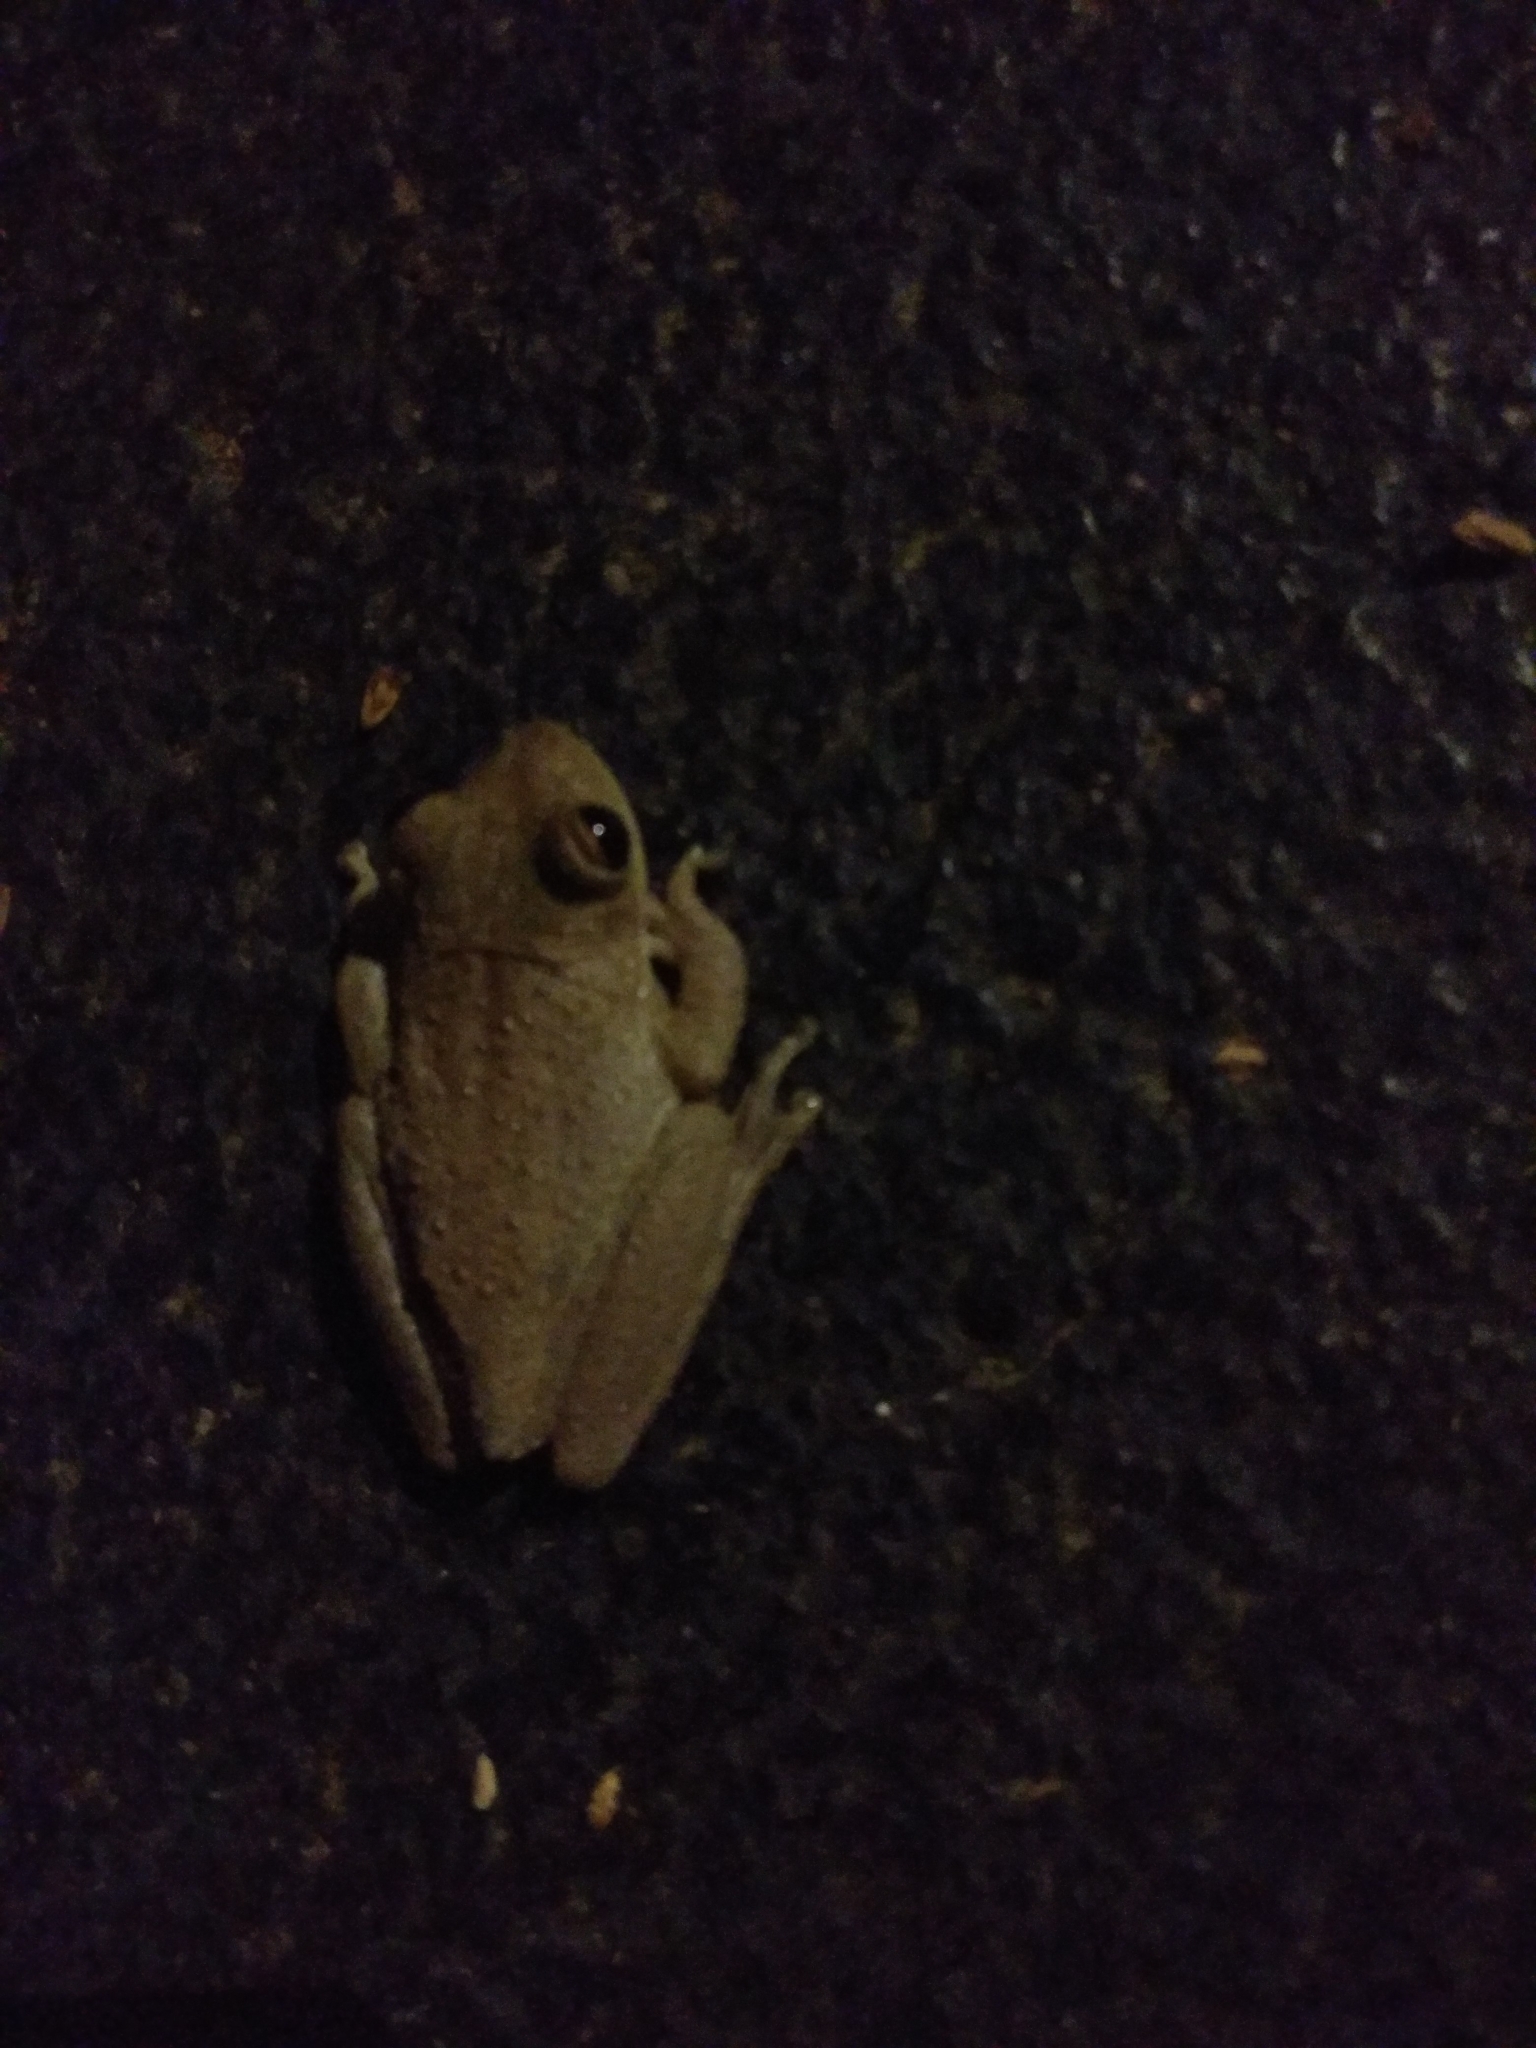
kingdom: Animalia
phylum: Chordata
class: Amphibia
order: Anura
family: Hylidae
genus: Osteopilus
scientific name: Osteopilus septentrionalis
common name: Cuban treefrog
